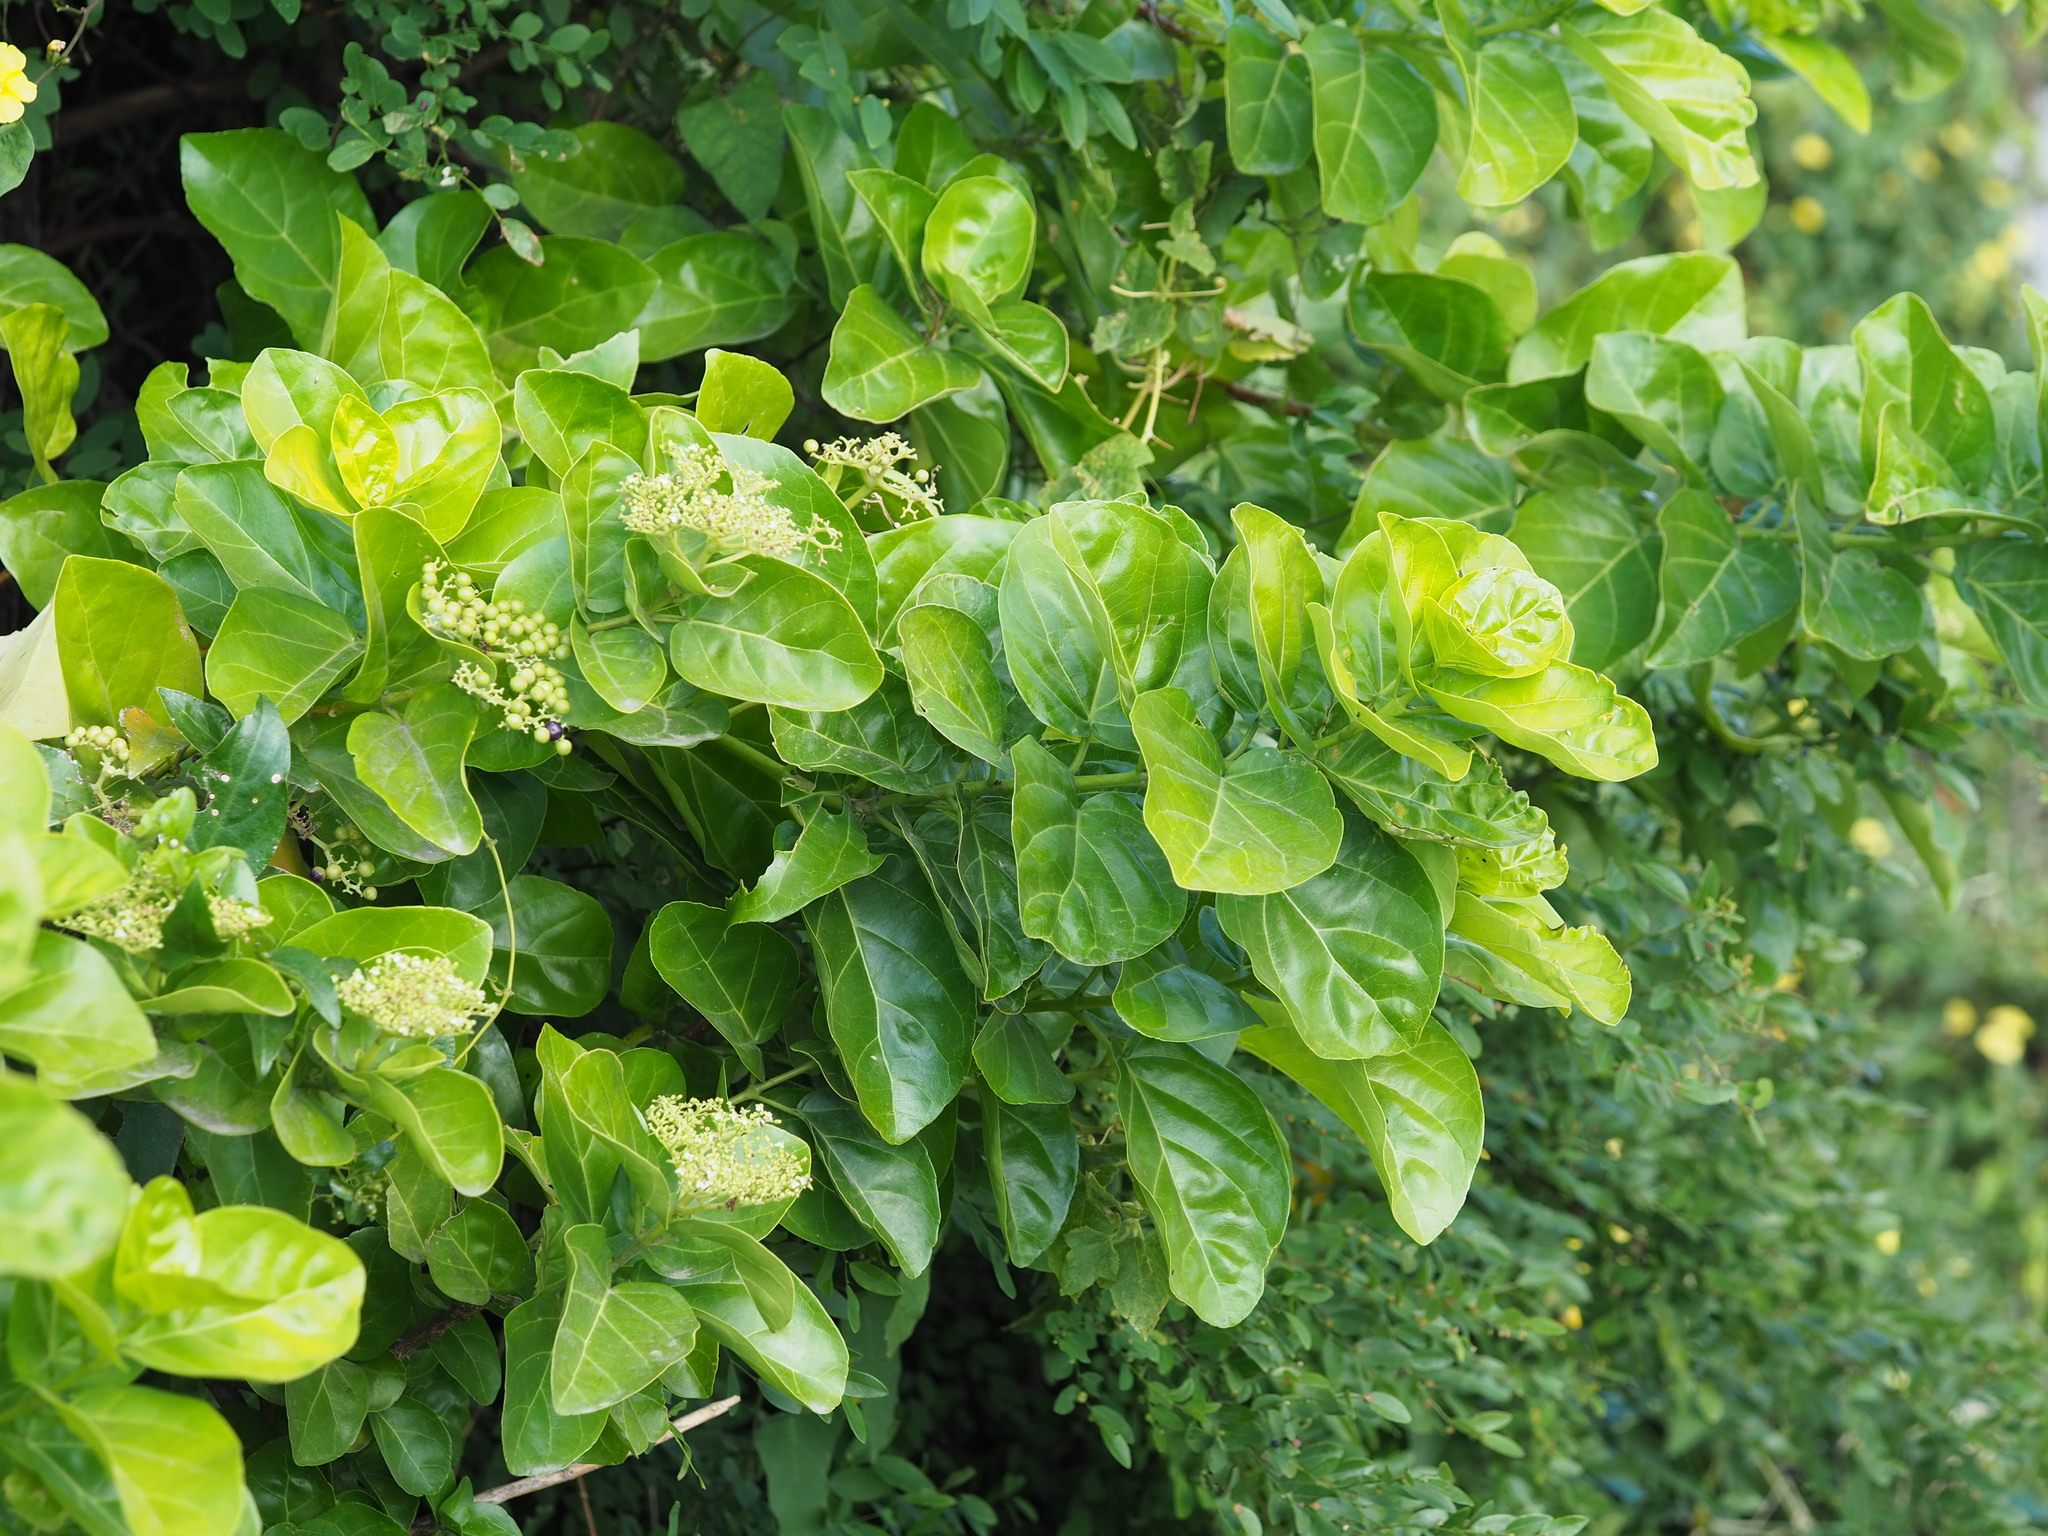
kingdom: Plantae
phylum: Tracheophyta
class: Magnoliopsida
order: Lamiales
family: Lamiaceae
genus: Premna
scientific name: Premna serratifolia
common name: Bastard guelder
